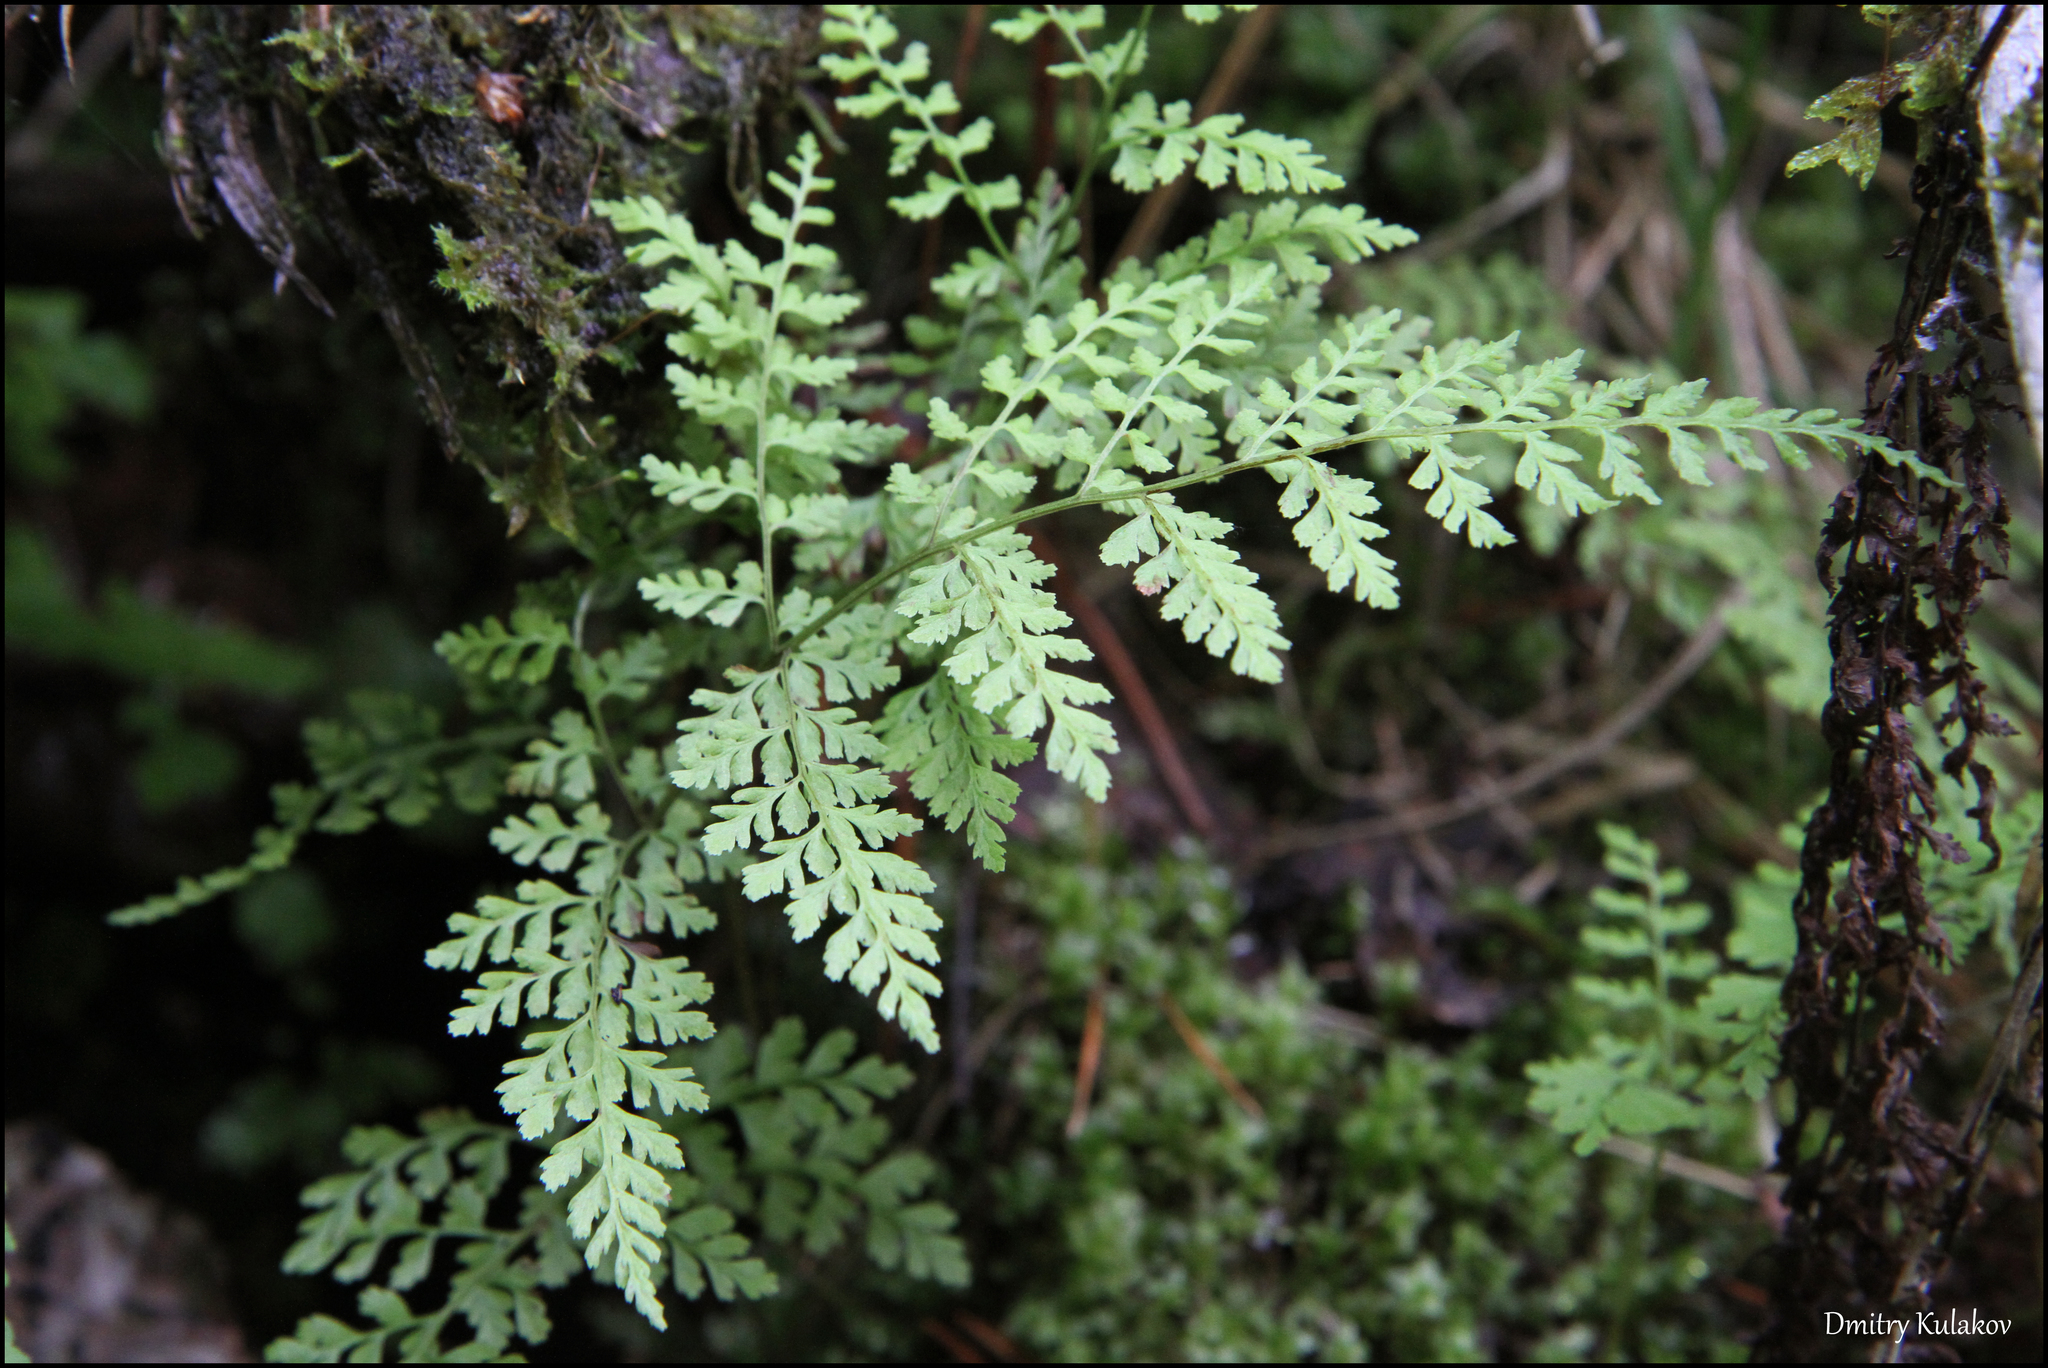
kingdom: Plantae
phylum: Tracheophyta
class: Polypodiopsida
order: Polypodiales
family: Cystopteridaceae
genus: Cystopteris
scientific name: Cystopteris sudetica
